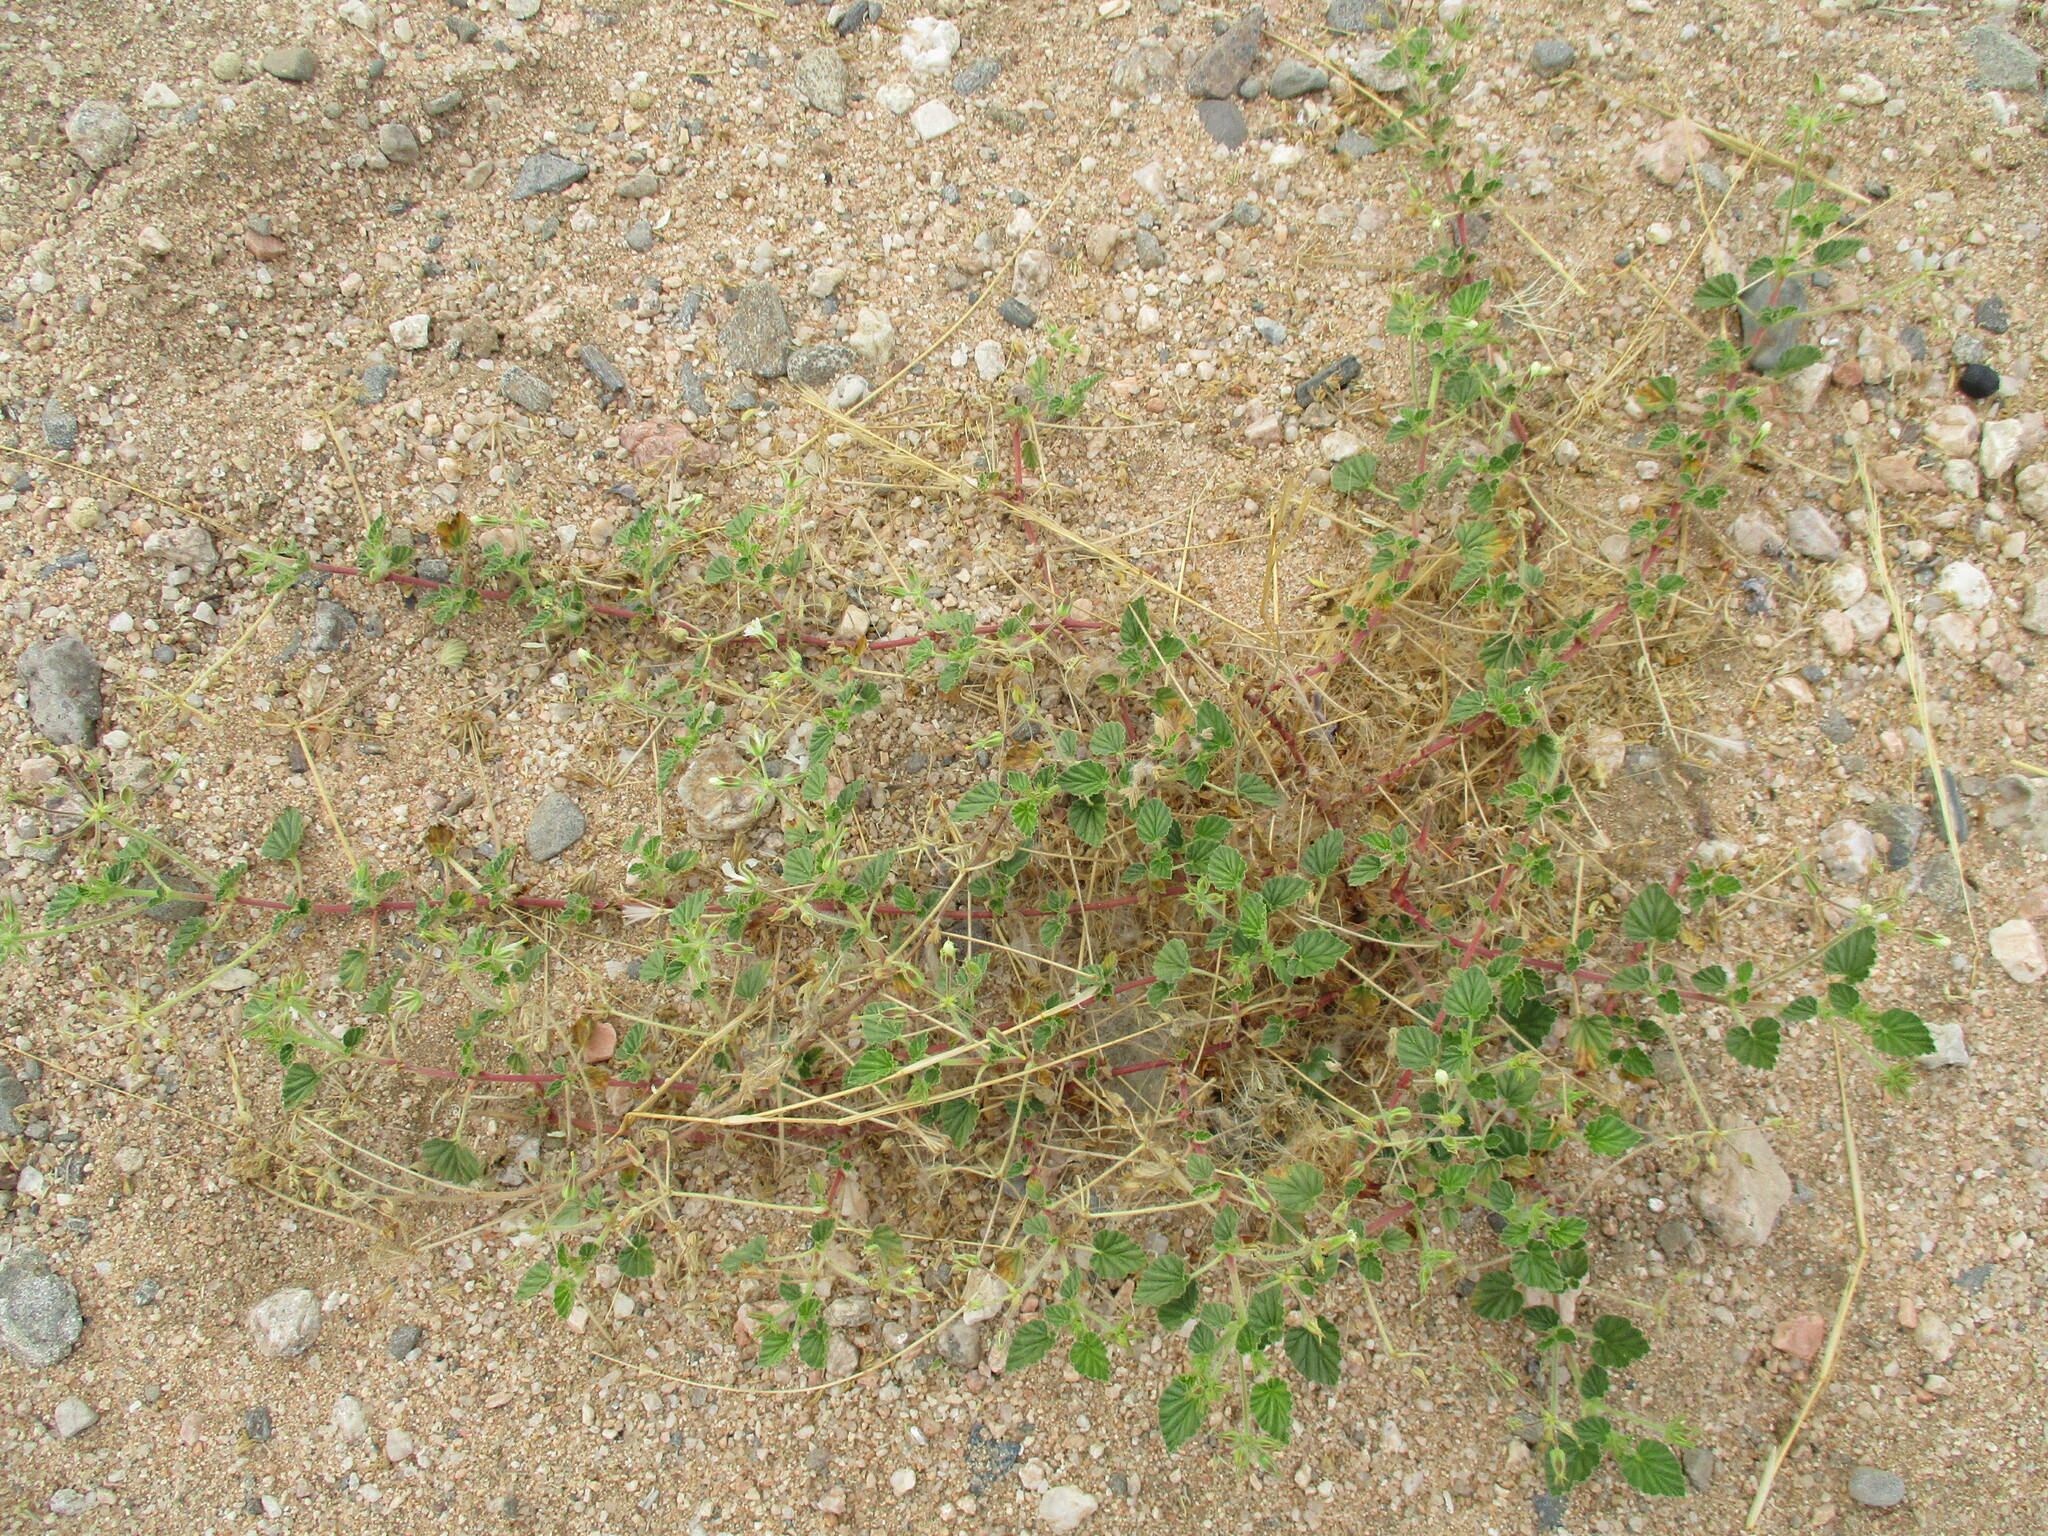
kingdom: Plantae
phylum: Tracheophyta
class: Magnoliopsida
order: Geraniales
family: Geraniaceae
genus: Monsonia
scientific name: Monsonia umbellata
